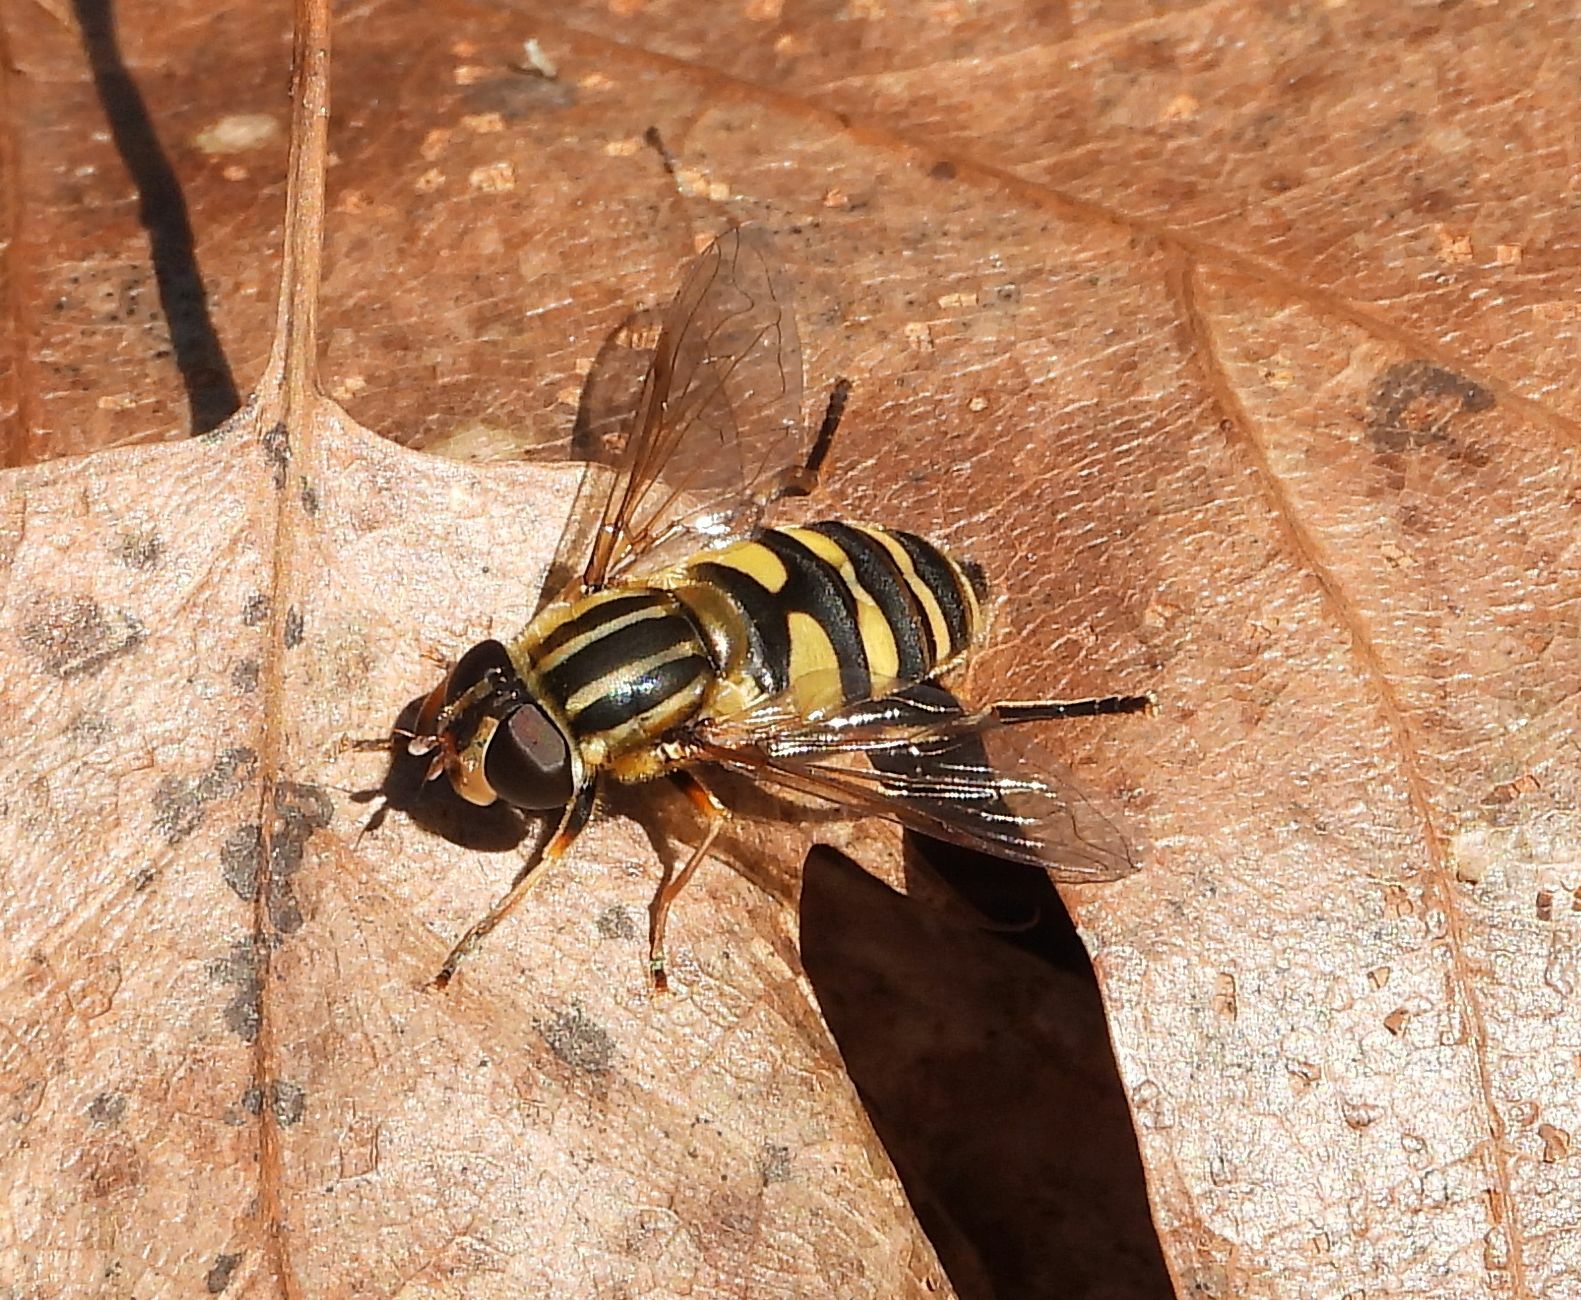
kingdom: Animalia
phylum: Arthropoda
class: Insecta
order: Diptera
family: Syrphidae
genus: Helophilus
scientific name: Helophilus fasciatus
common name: Narrow-headed marsh fly
